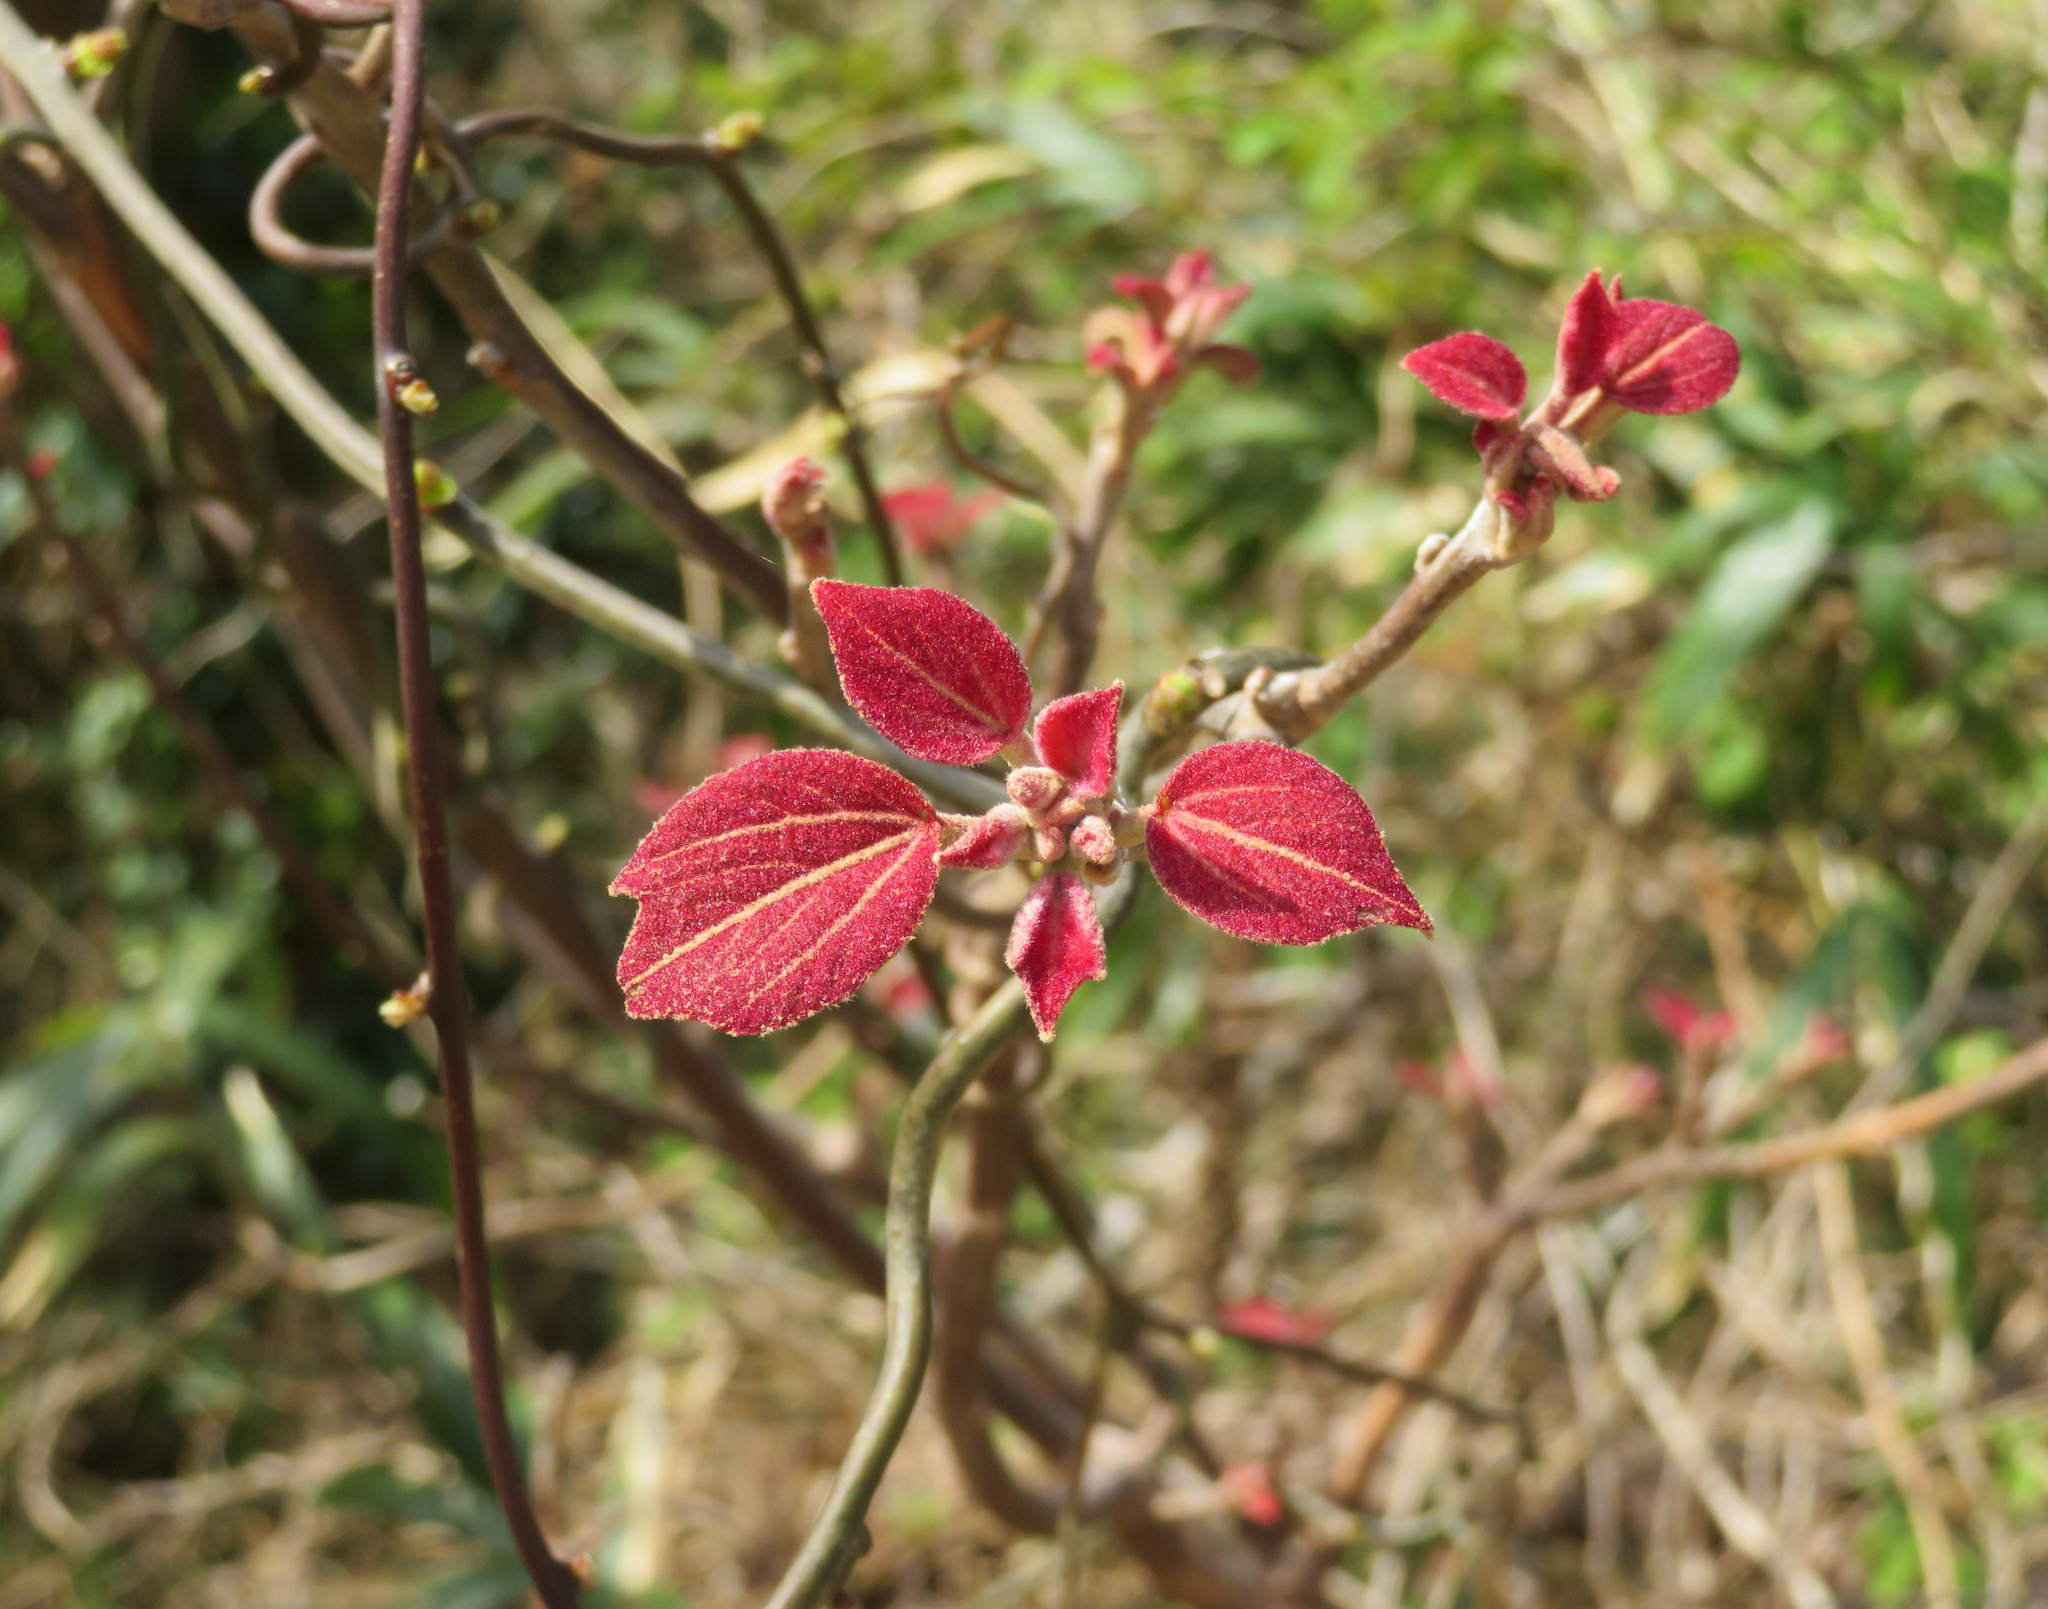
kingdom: Plantae
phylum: Tracheophyta
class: Magnoliopsida
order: Malpighiales
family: Euphorbiaceae
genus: Mallotus
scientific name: Mallotus japonicus
